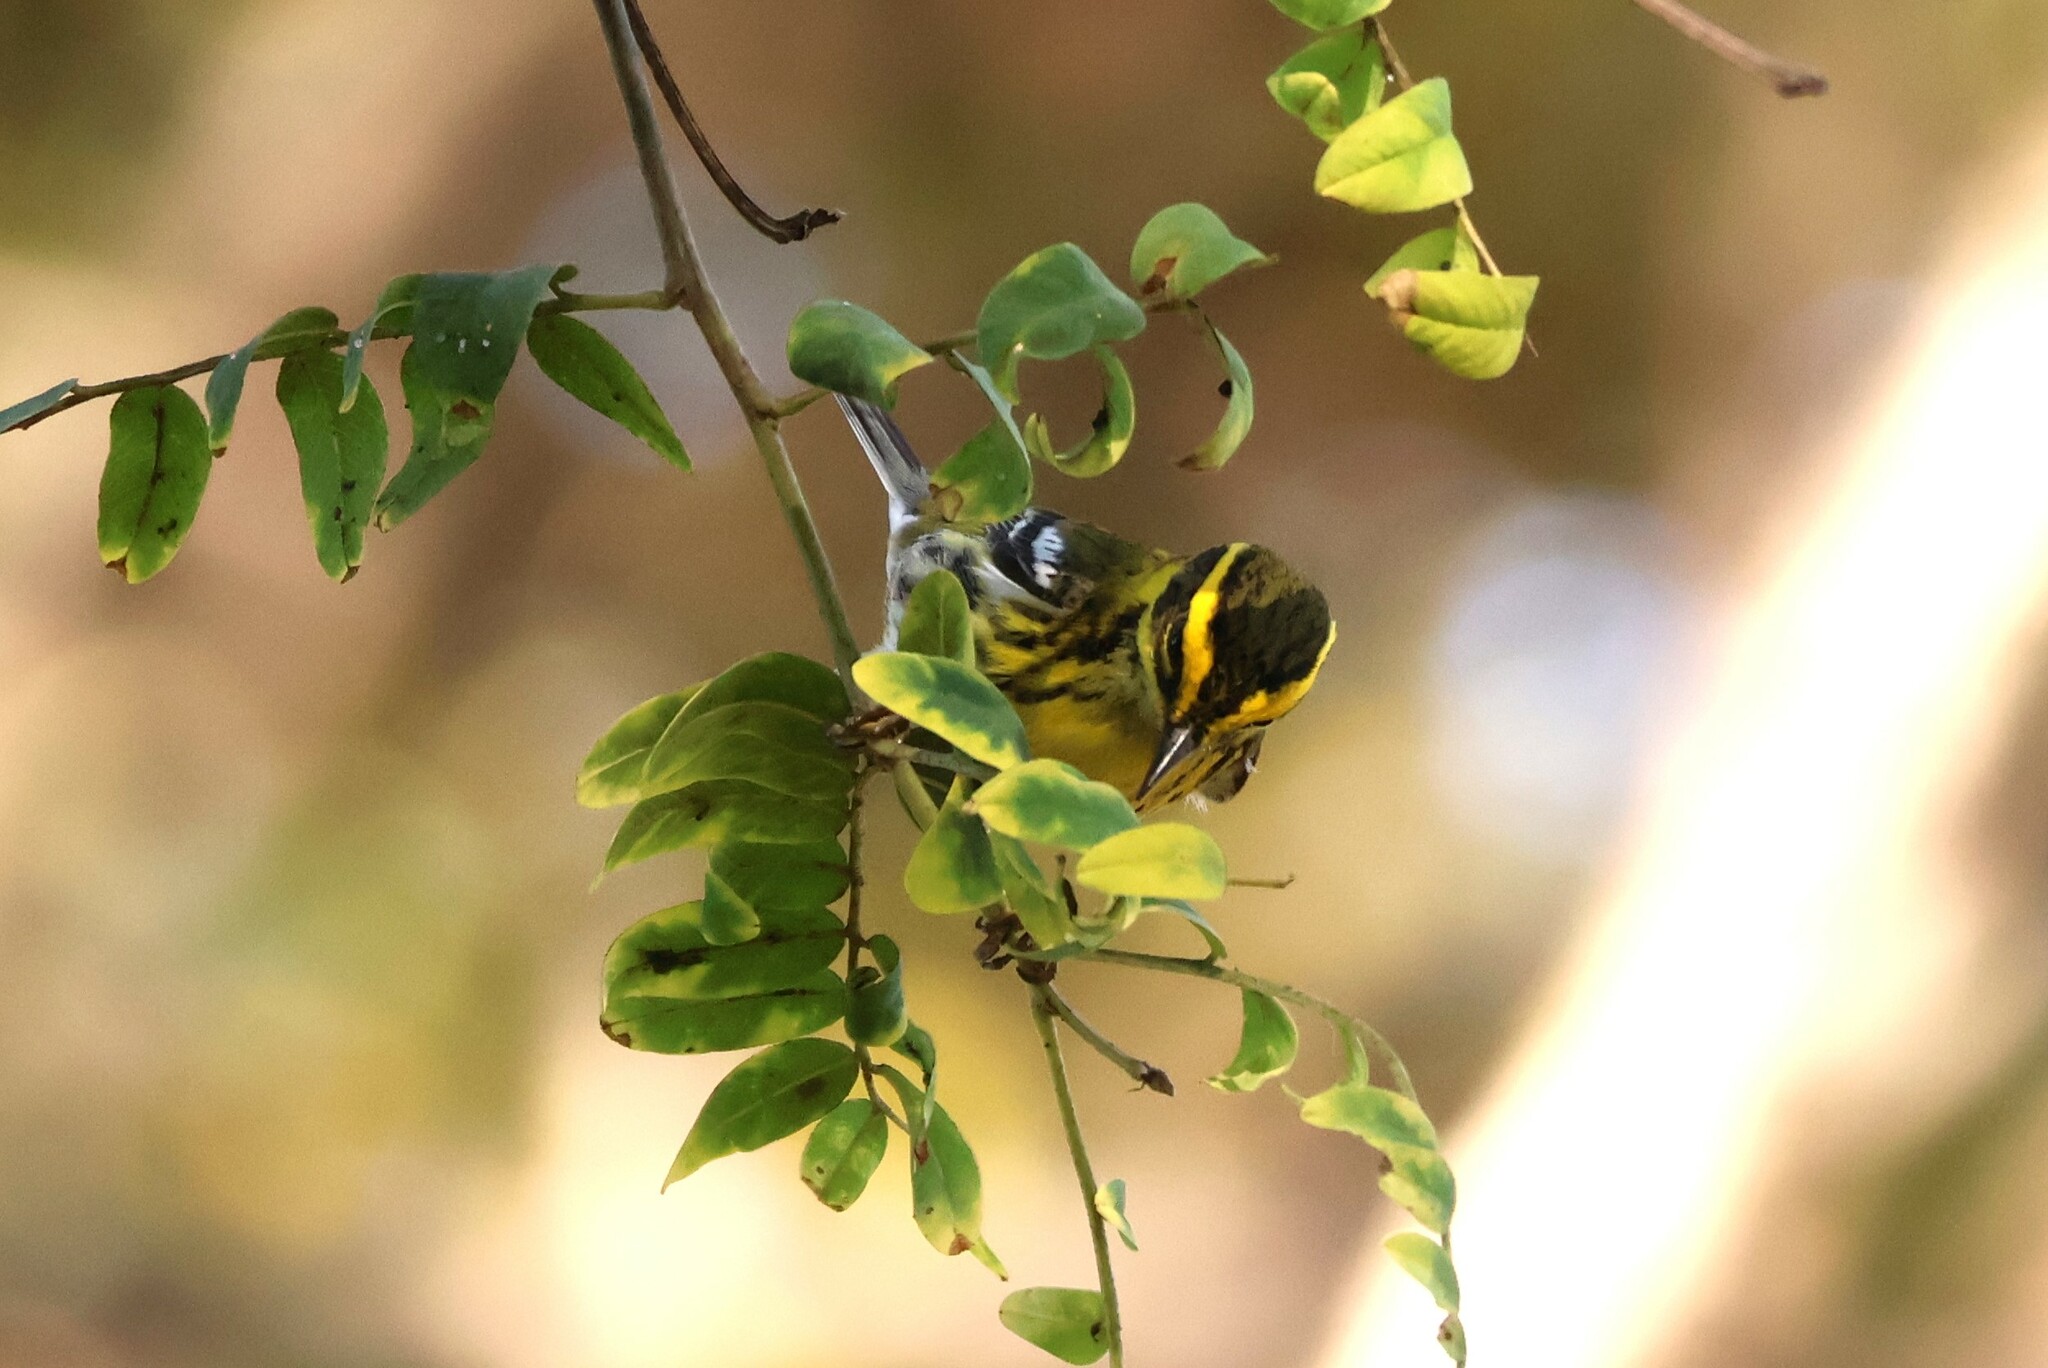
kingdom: Animalia
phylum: Chordata
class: Aves
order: Passeriformes
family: Parulidae
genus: Setophaga
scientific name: Setophaga townsendi
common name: Townsend's warbler
